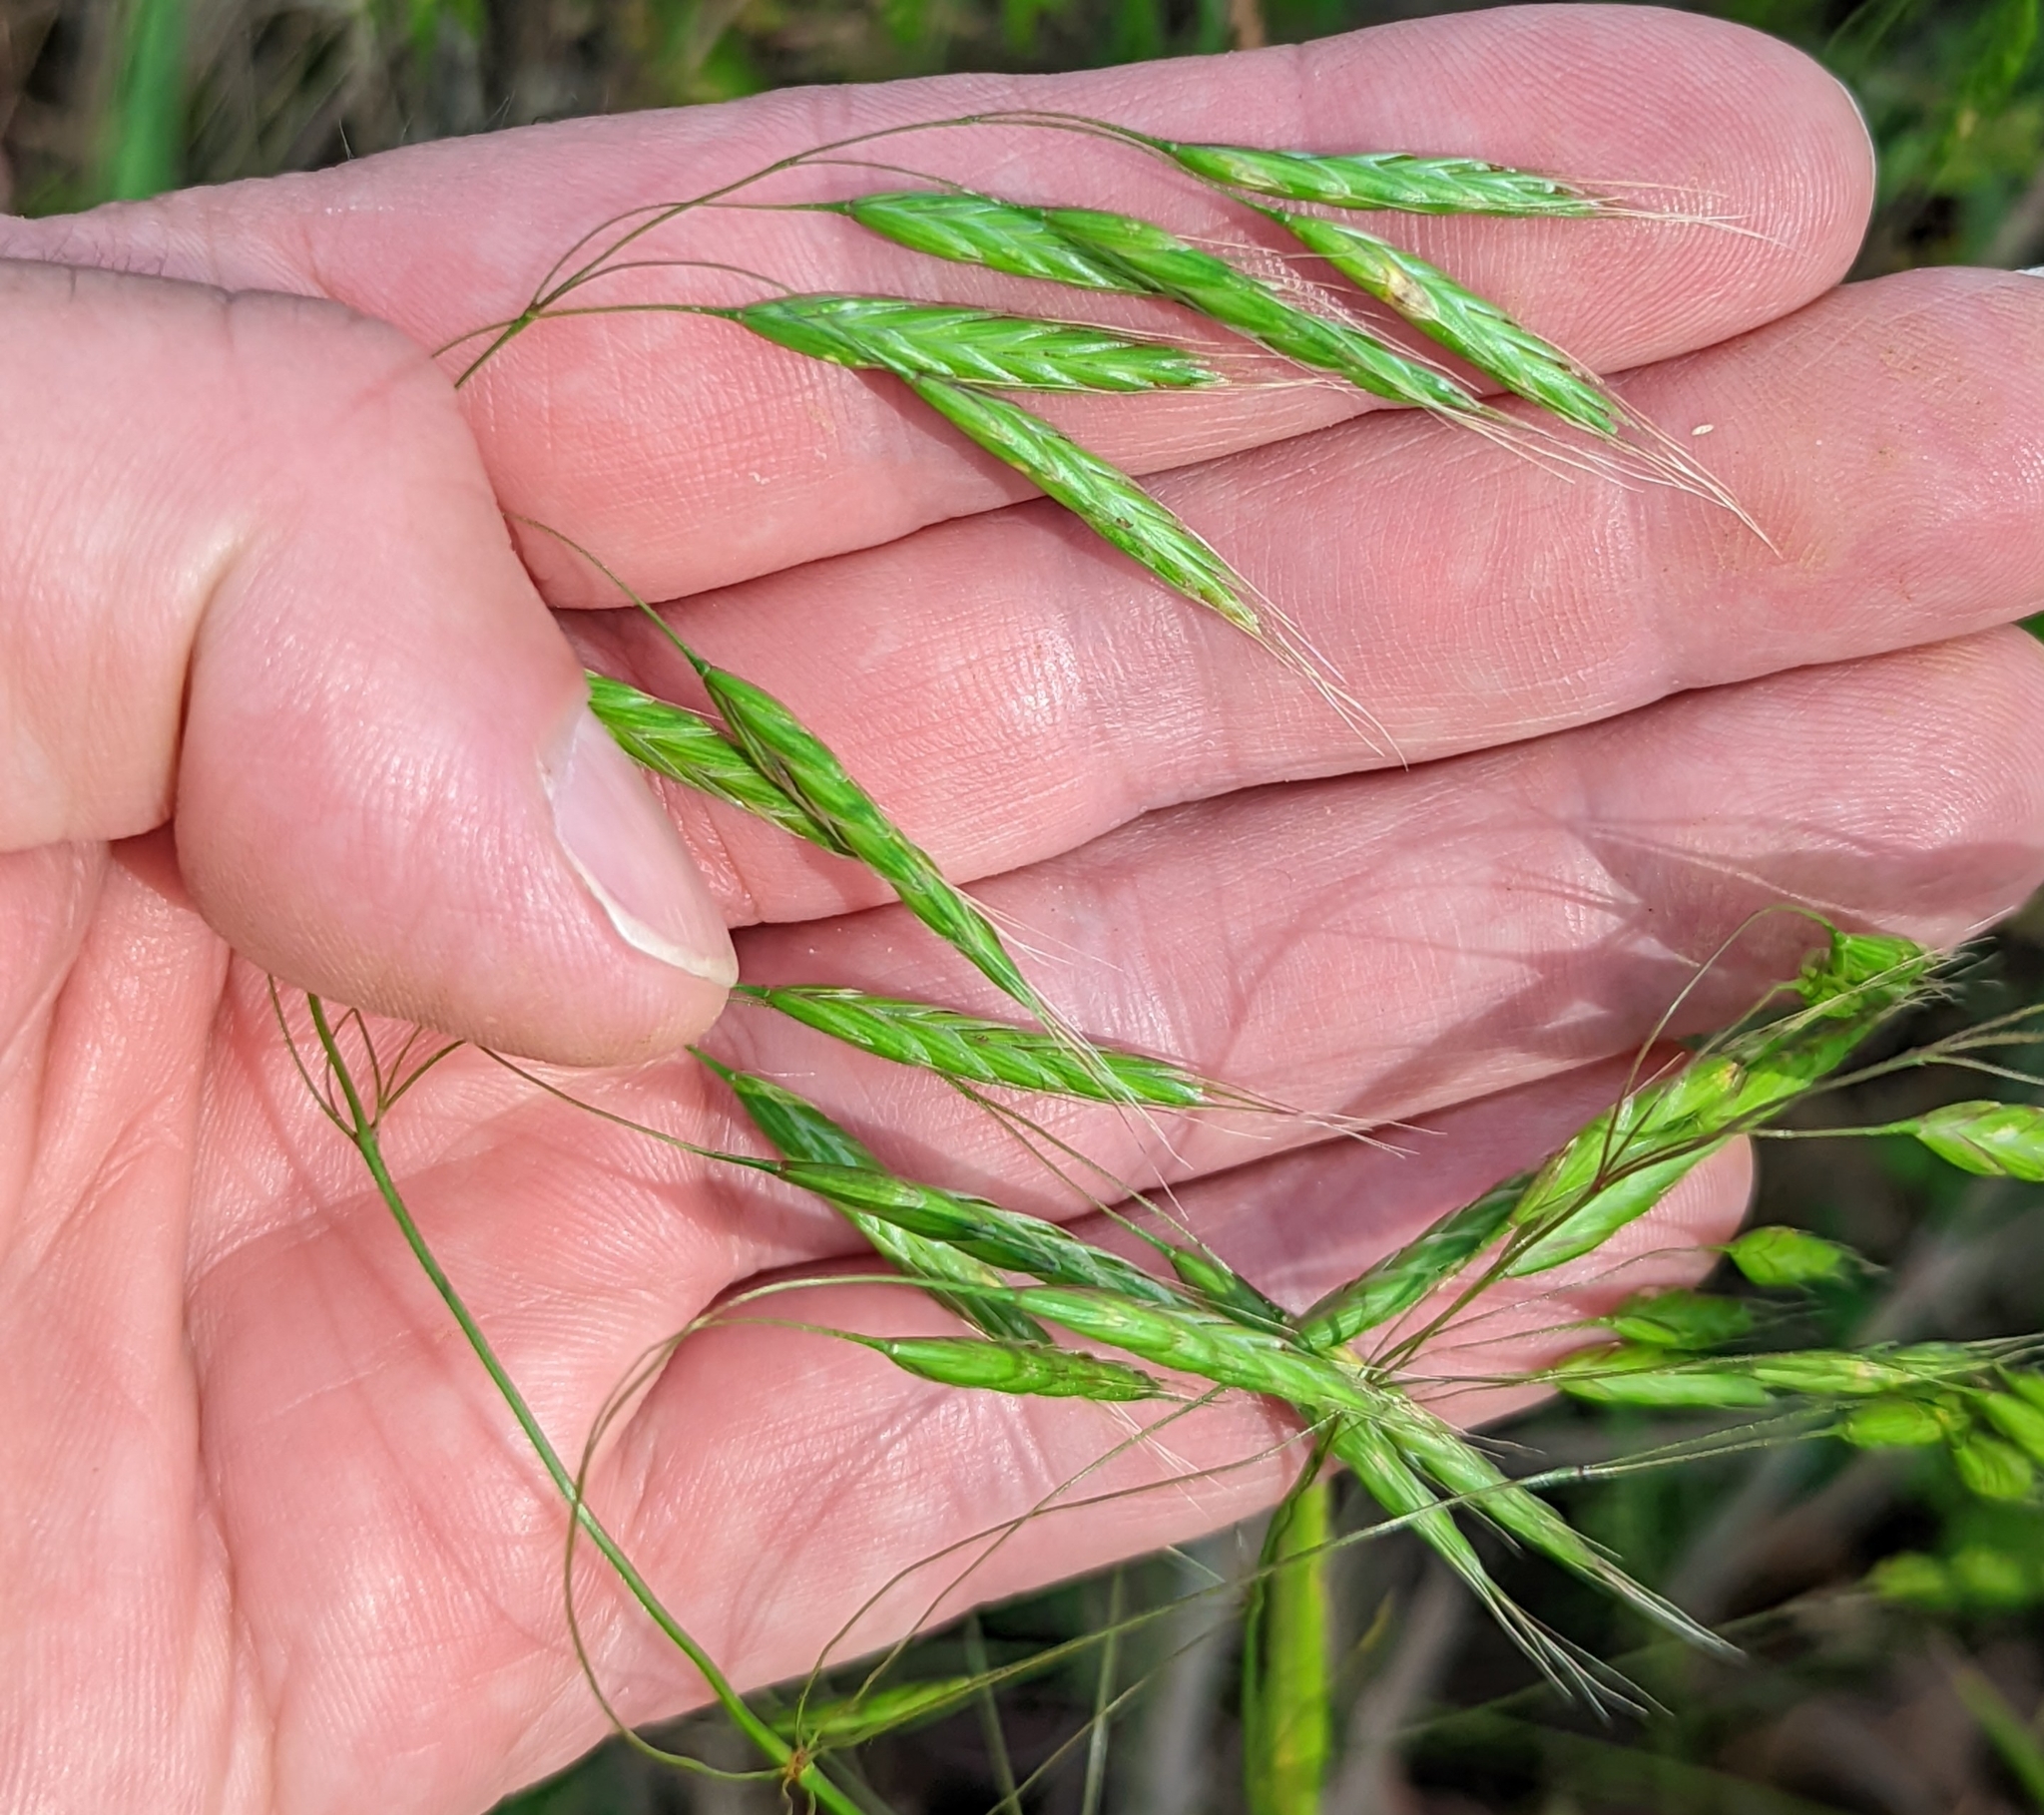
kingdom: Plantae
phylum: Tracheophyta
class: Liliopsida
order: Poales
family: Poaceae
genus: Bromus
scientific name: Bromus japonicus
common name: Japanese brome
